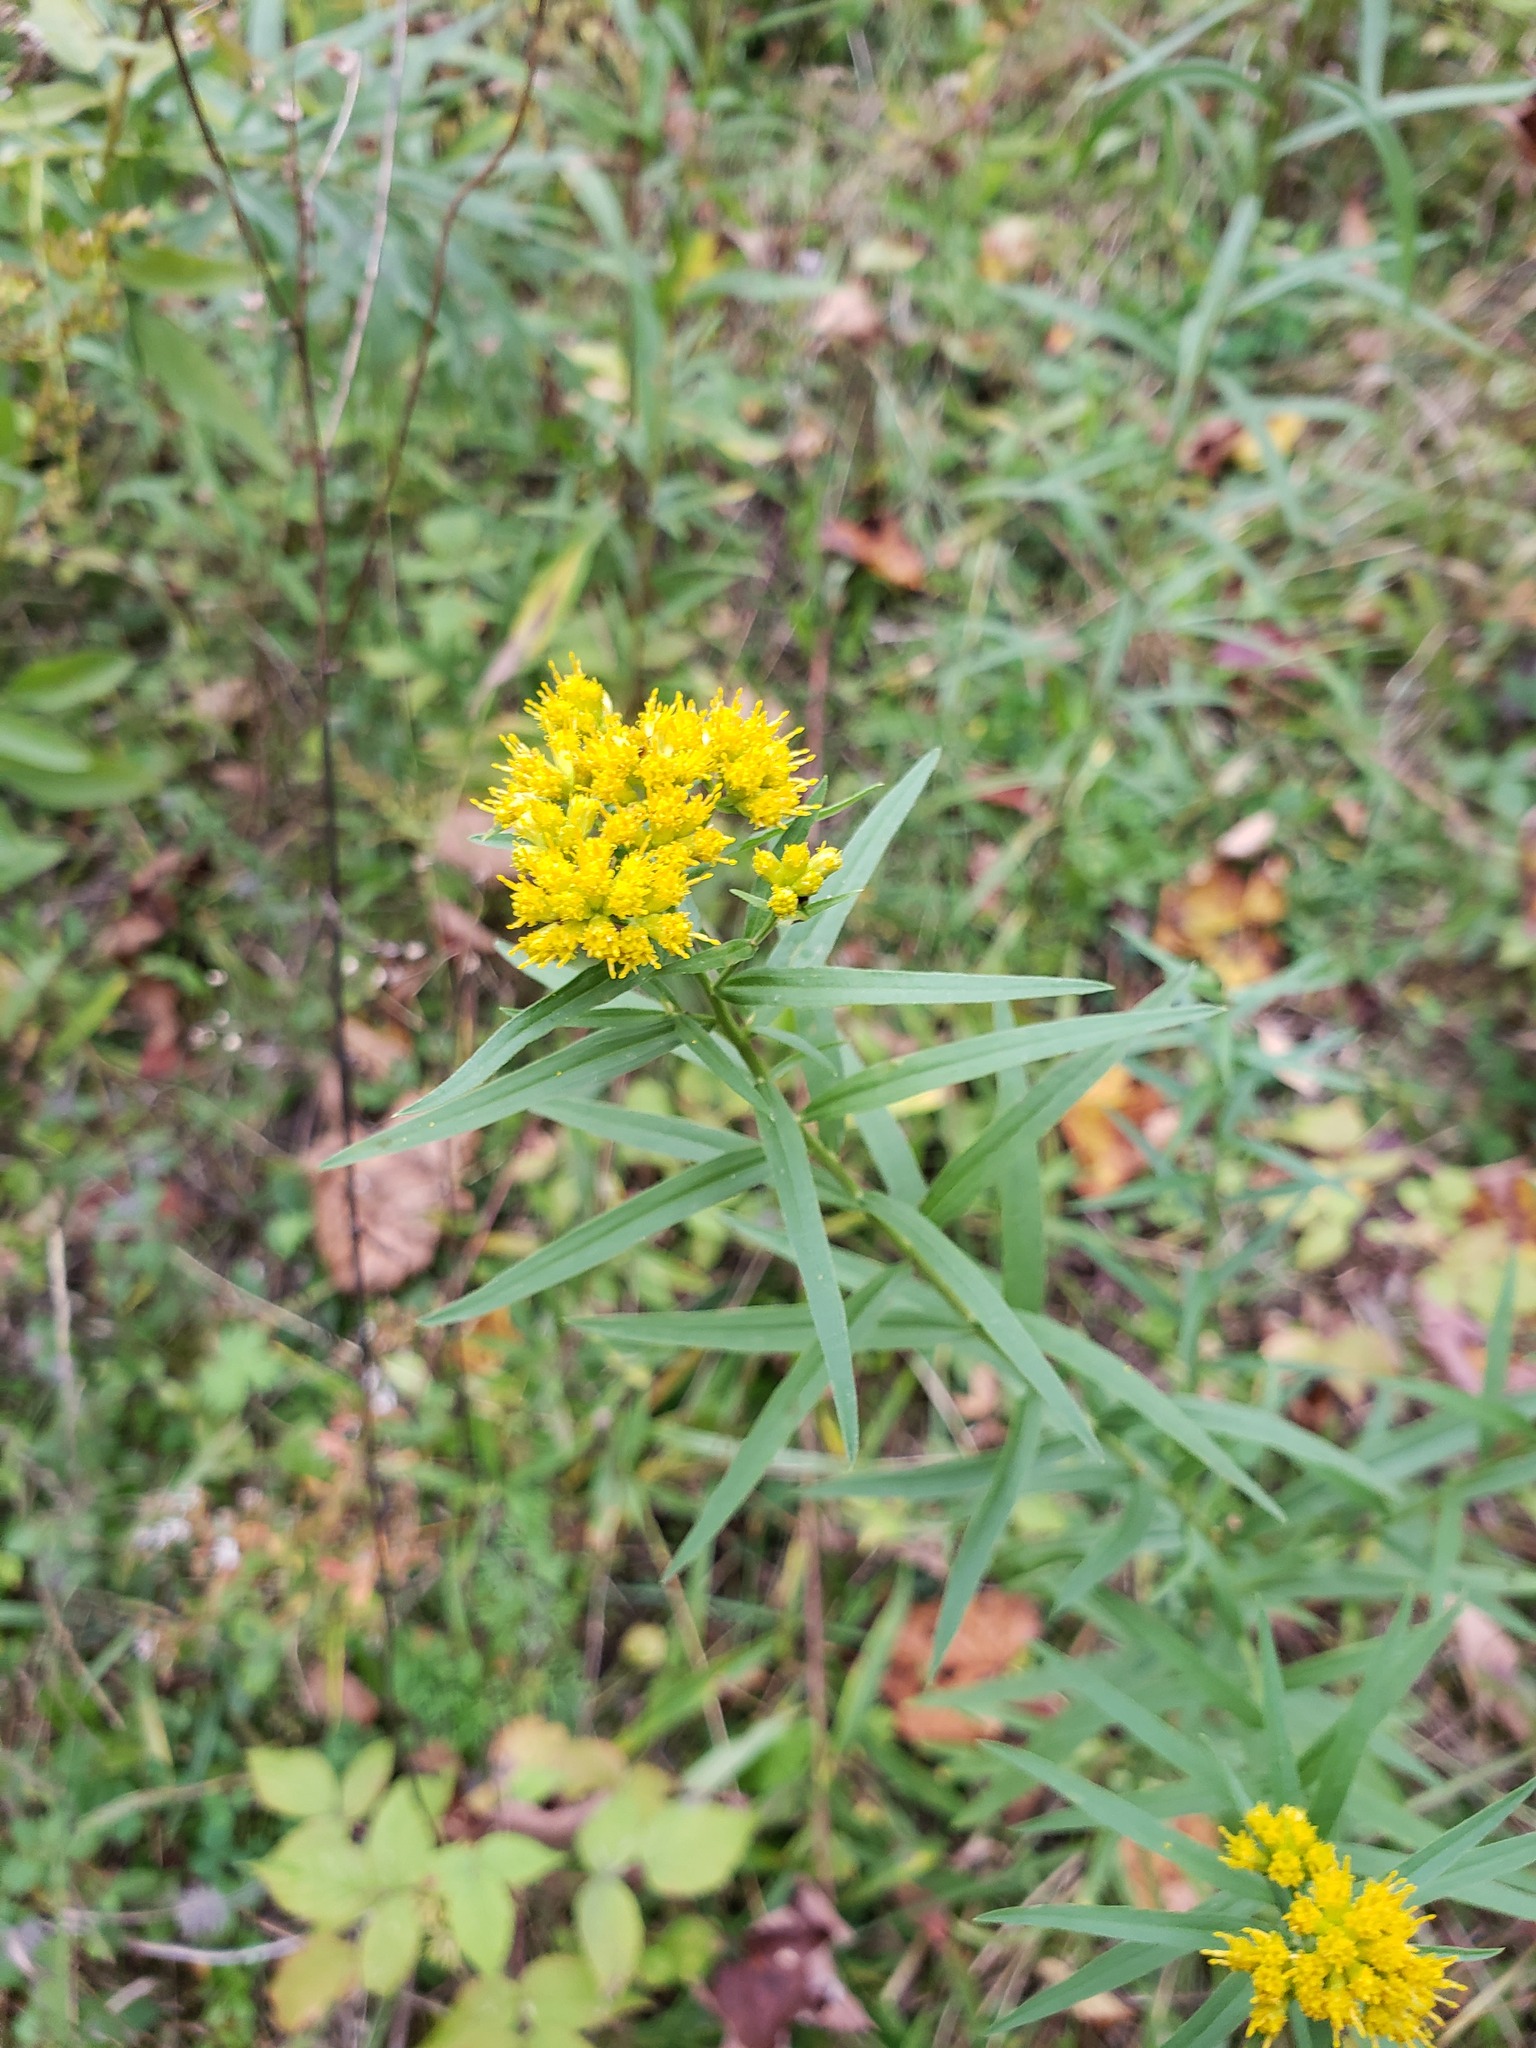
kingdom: Plantae
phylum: Tracheophyta
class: Magnoliopsida
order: Asterales
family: Asteraceae
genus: Euthamia
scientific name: Euthamia graminifolia
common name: Common goldentop
